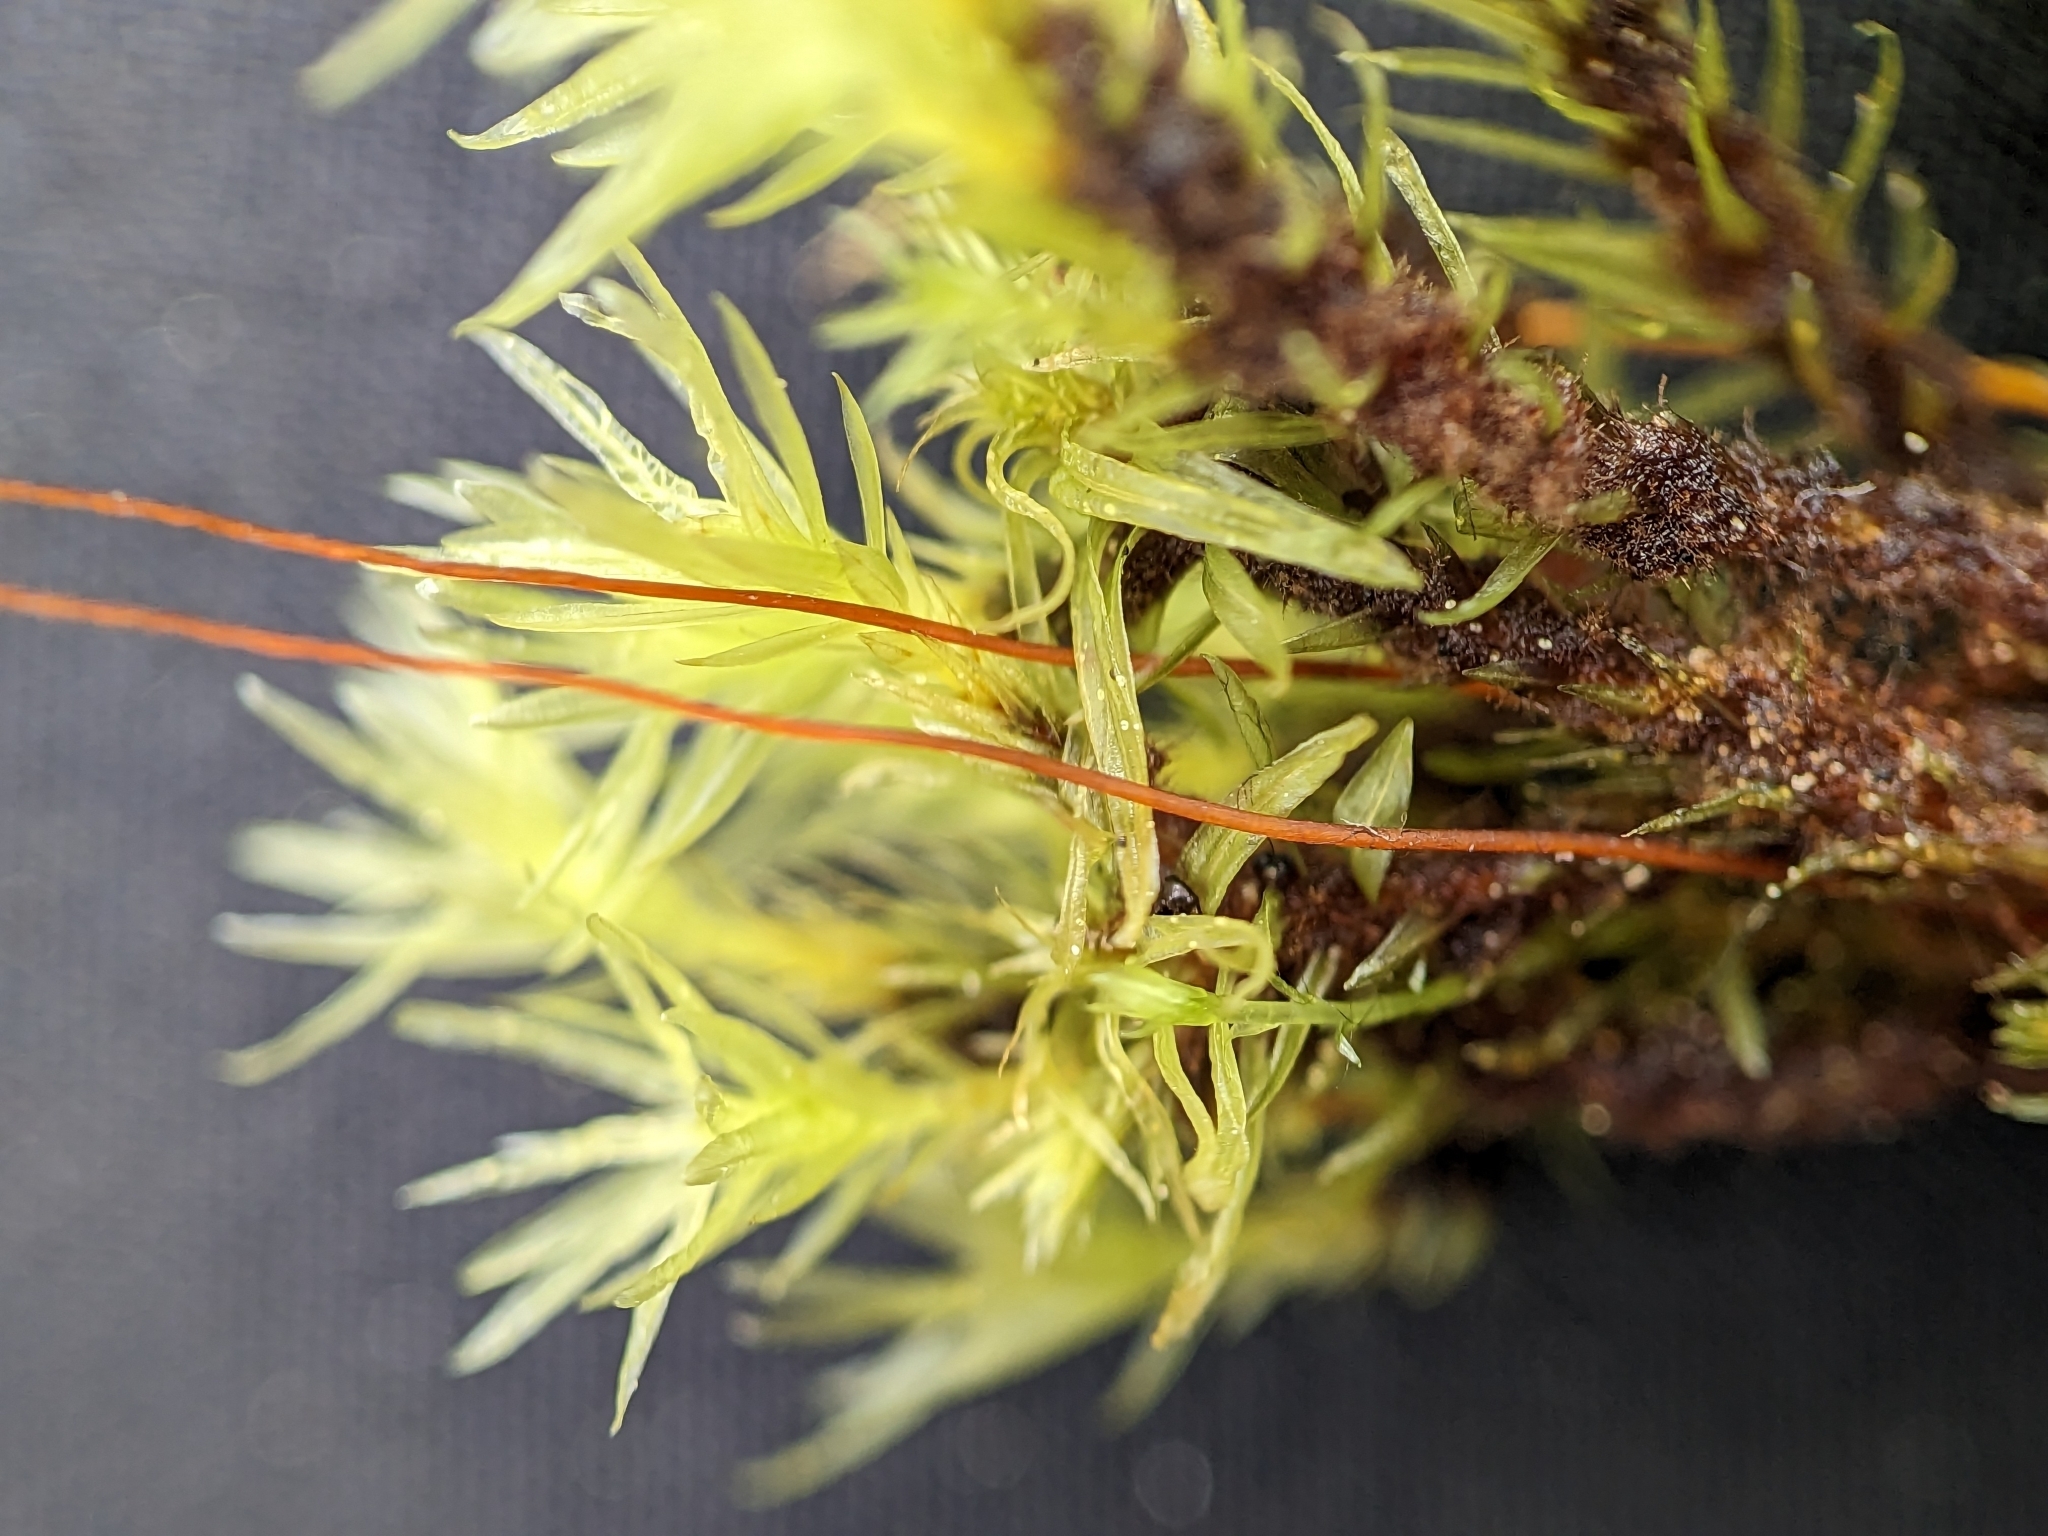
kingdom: Plantae
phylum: Bryophyta
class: Bryopsida
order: Aulacomniales
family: Aulacomniaceae
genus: Aulacomnium
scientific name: Aulacomnium palustre
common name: Bog groove-moss
